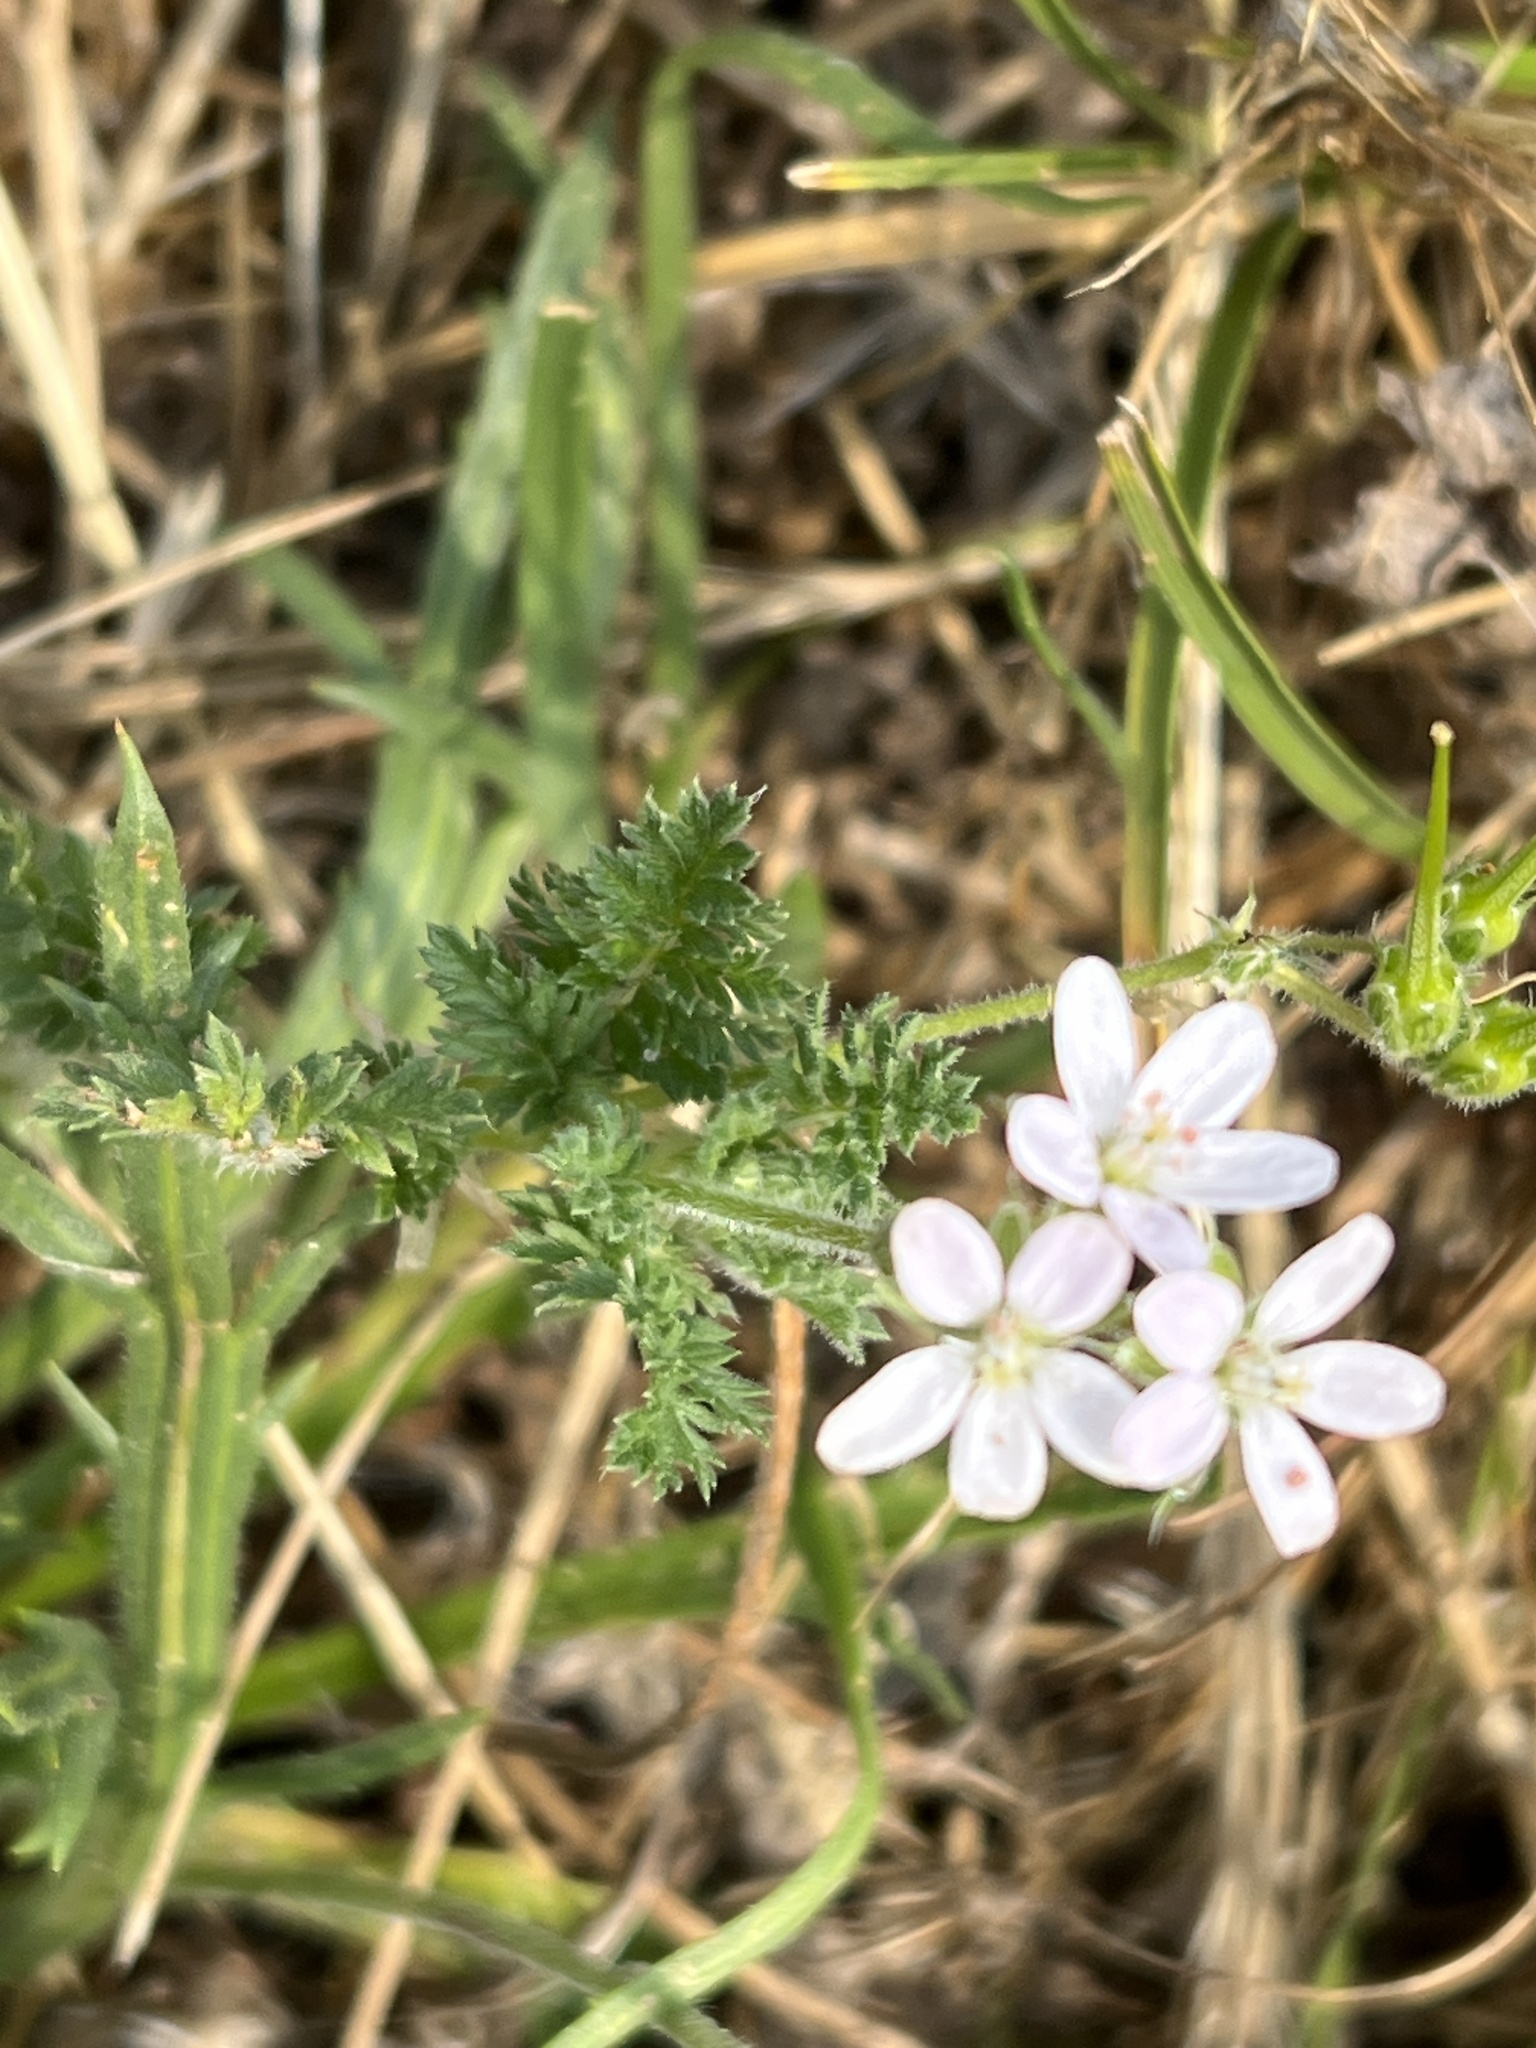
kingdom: Plantae
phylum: Tracheophyta
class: Magnoliopsida
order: Geraniales
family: Geraniaceae
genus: Erodium
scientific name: Erodium cicutarium
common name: Common stork's-bill
